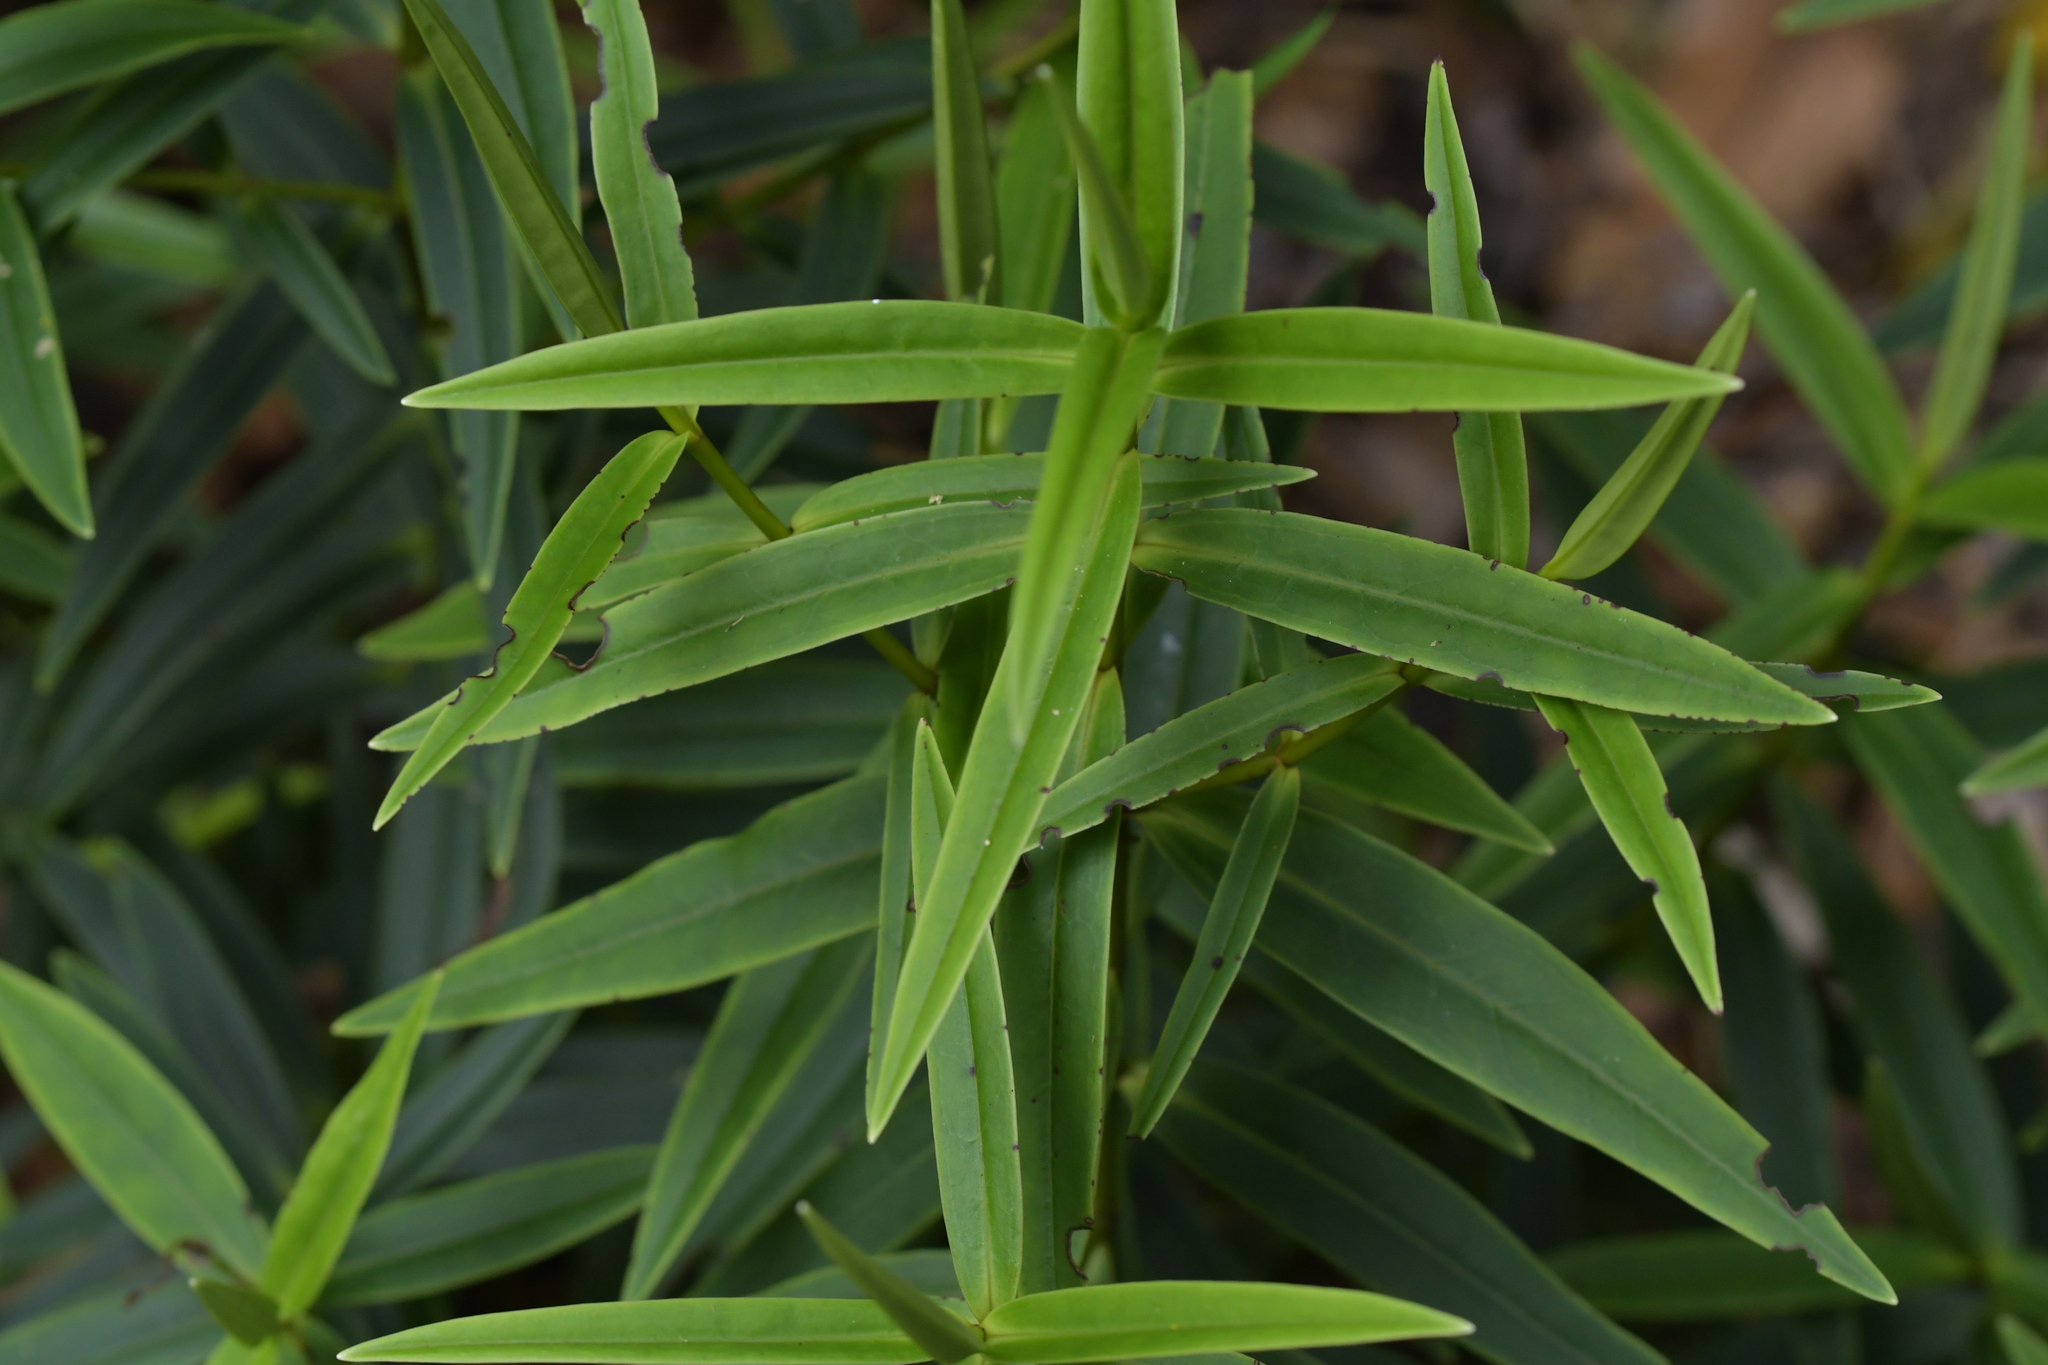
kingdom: Plantae
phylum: Tracheophyta
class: Magnoliopsida
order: Lamiales
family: Plantaginaceae
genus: Veronica
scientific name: Veronica macrocarpa
